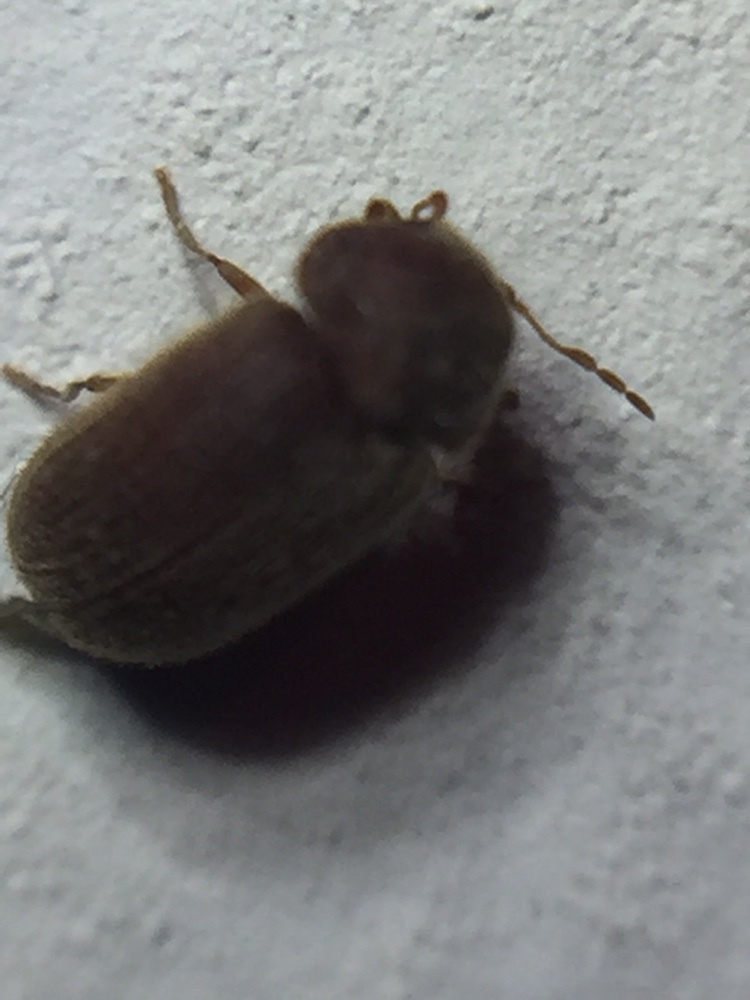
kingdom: Animalia
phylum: Arthropoda
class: Insecta
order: Coleoptera
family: Anobiidae
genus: Stegobium
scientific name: Stegobium paniceum
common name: Drugstore beetle
